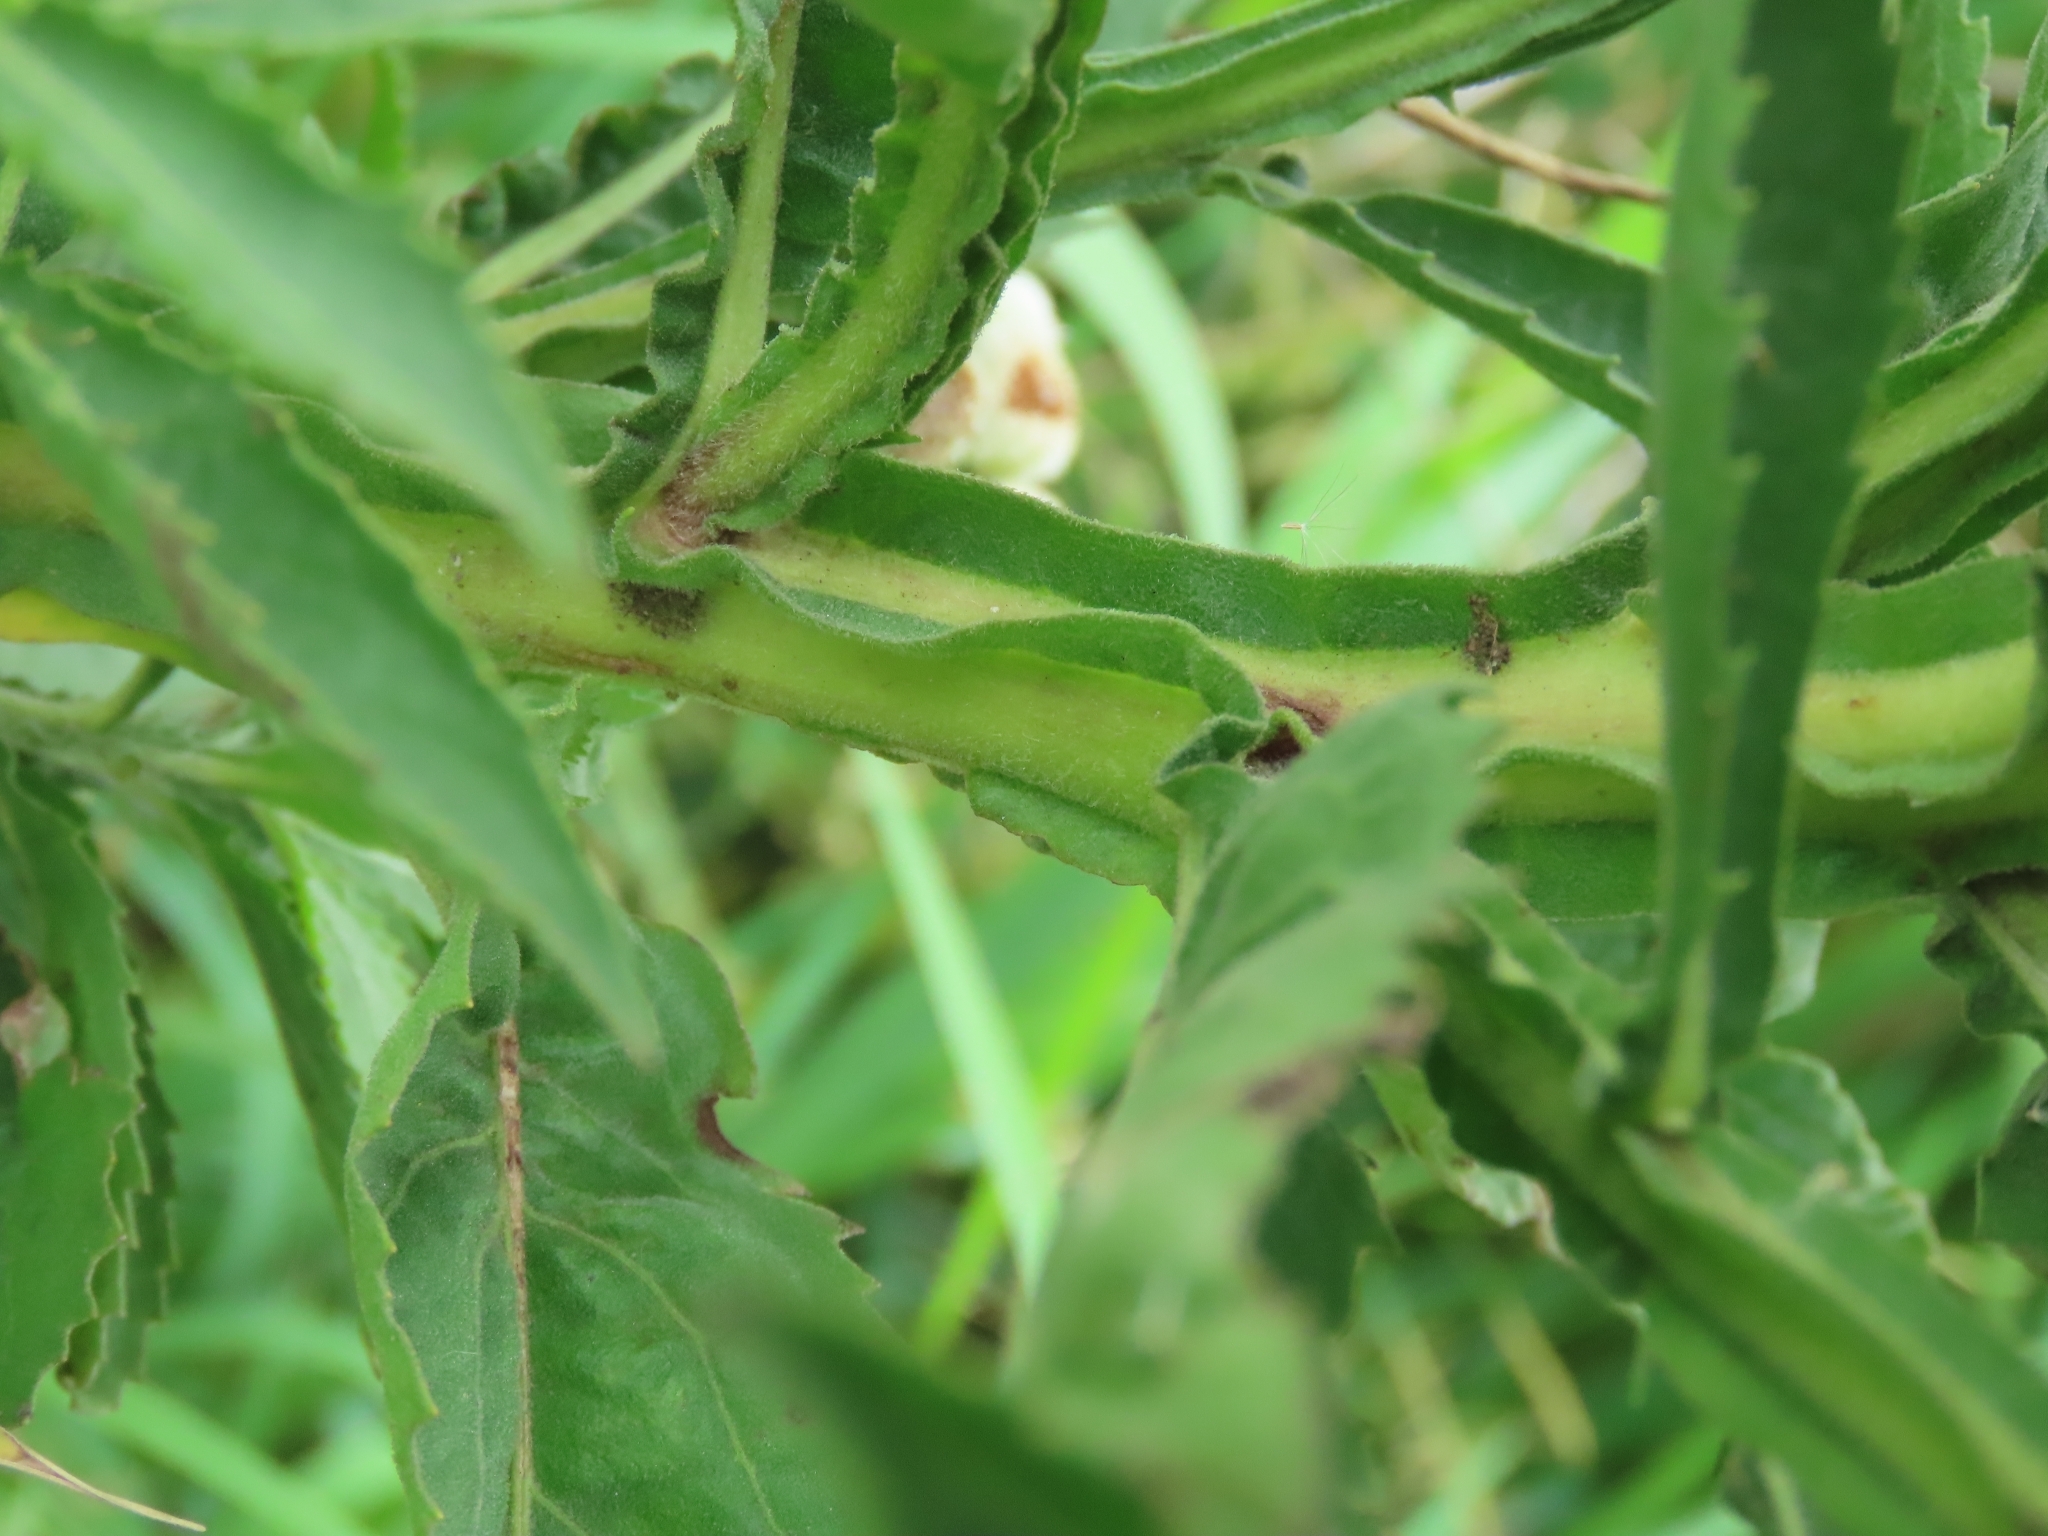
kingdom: Plantae
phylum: Tracheophyta
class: Magnoliopsida
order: Asterales
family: Asteraceae
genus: Pluchea
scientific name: Pluchea sagittalis
